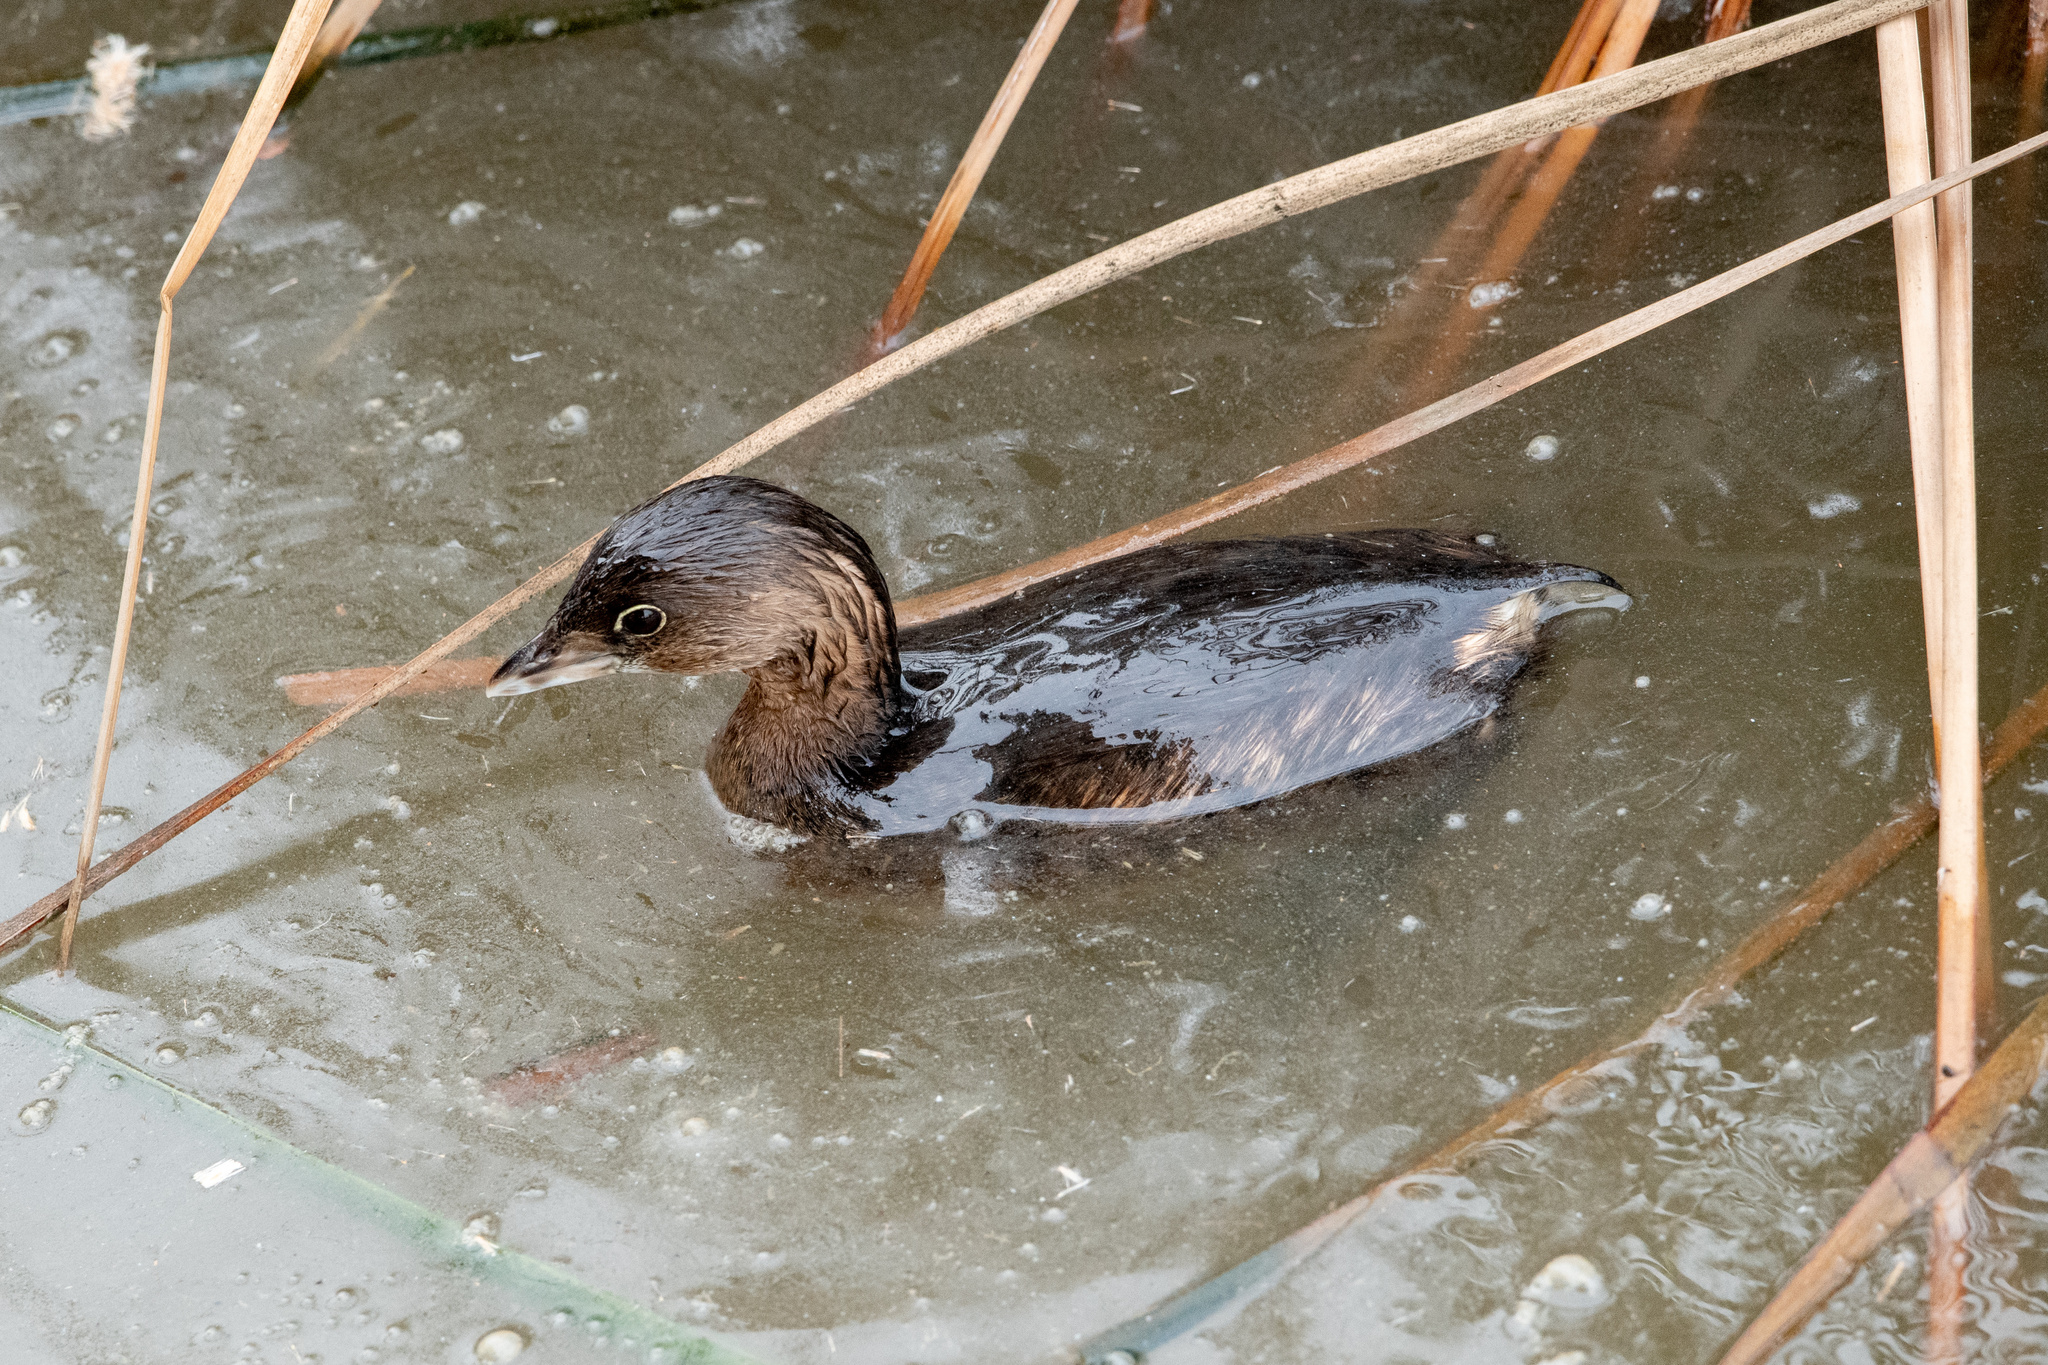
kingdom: Animalia
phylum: Chordata
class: Aves
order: Podicipediformes
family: Podicipedidae
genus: Podilymbus
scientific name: Podilymbus podiceps
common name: Pied-billed grebe
